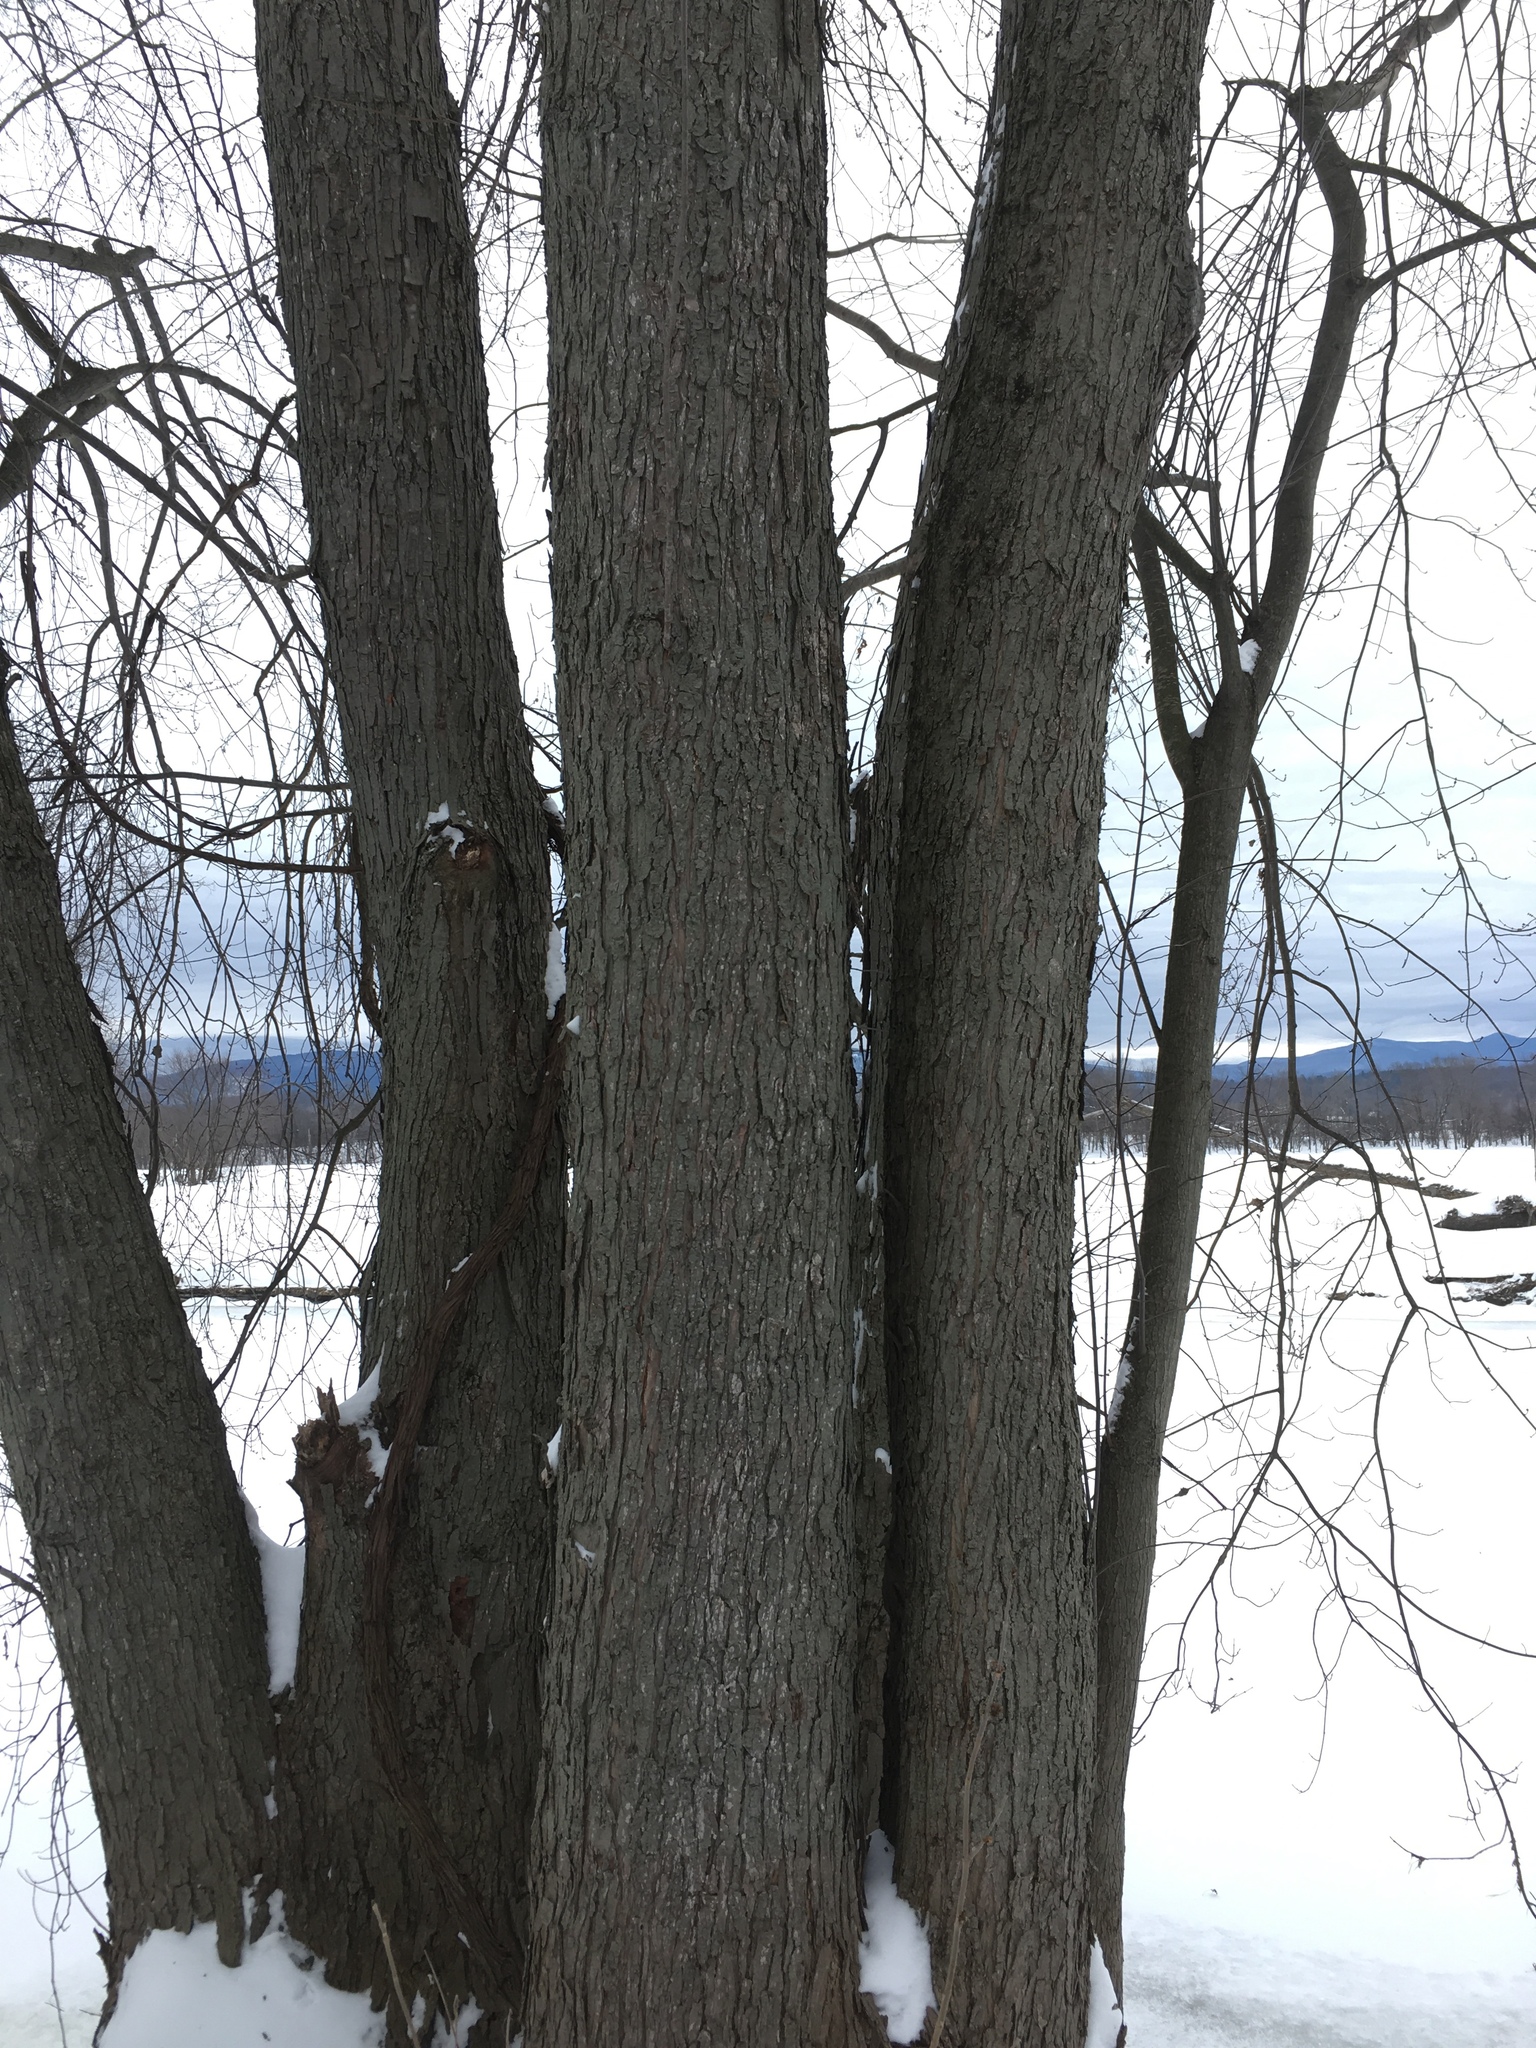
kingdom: Plantae
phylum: Tracheophyta
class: Magnoliopsida
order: Sapindales
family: Sapindaceae
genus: Acer
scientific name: Acer saccharinum
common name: Silver maple
